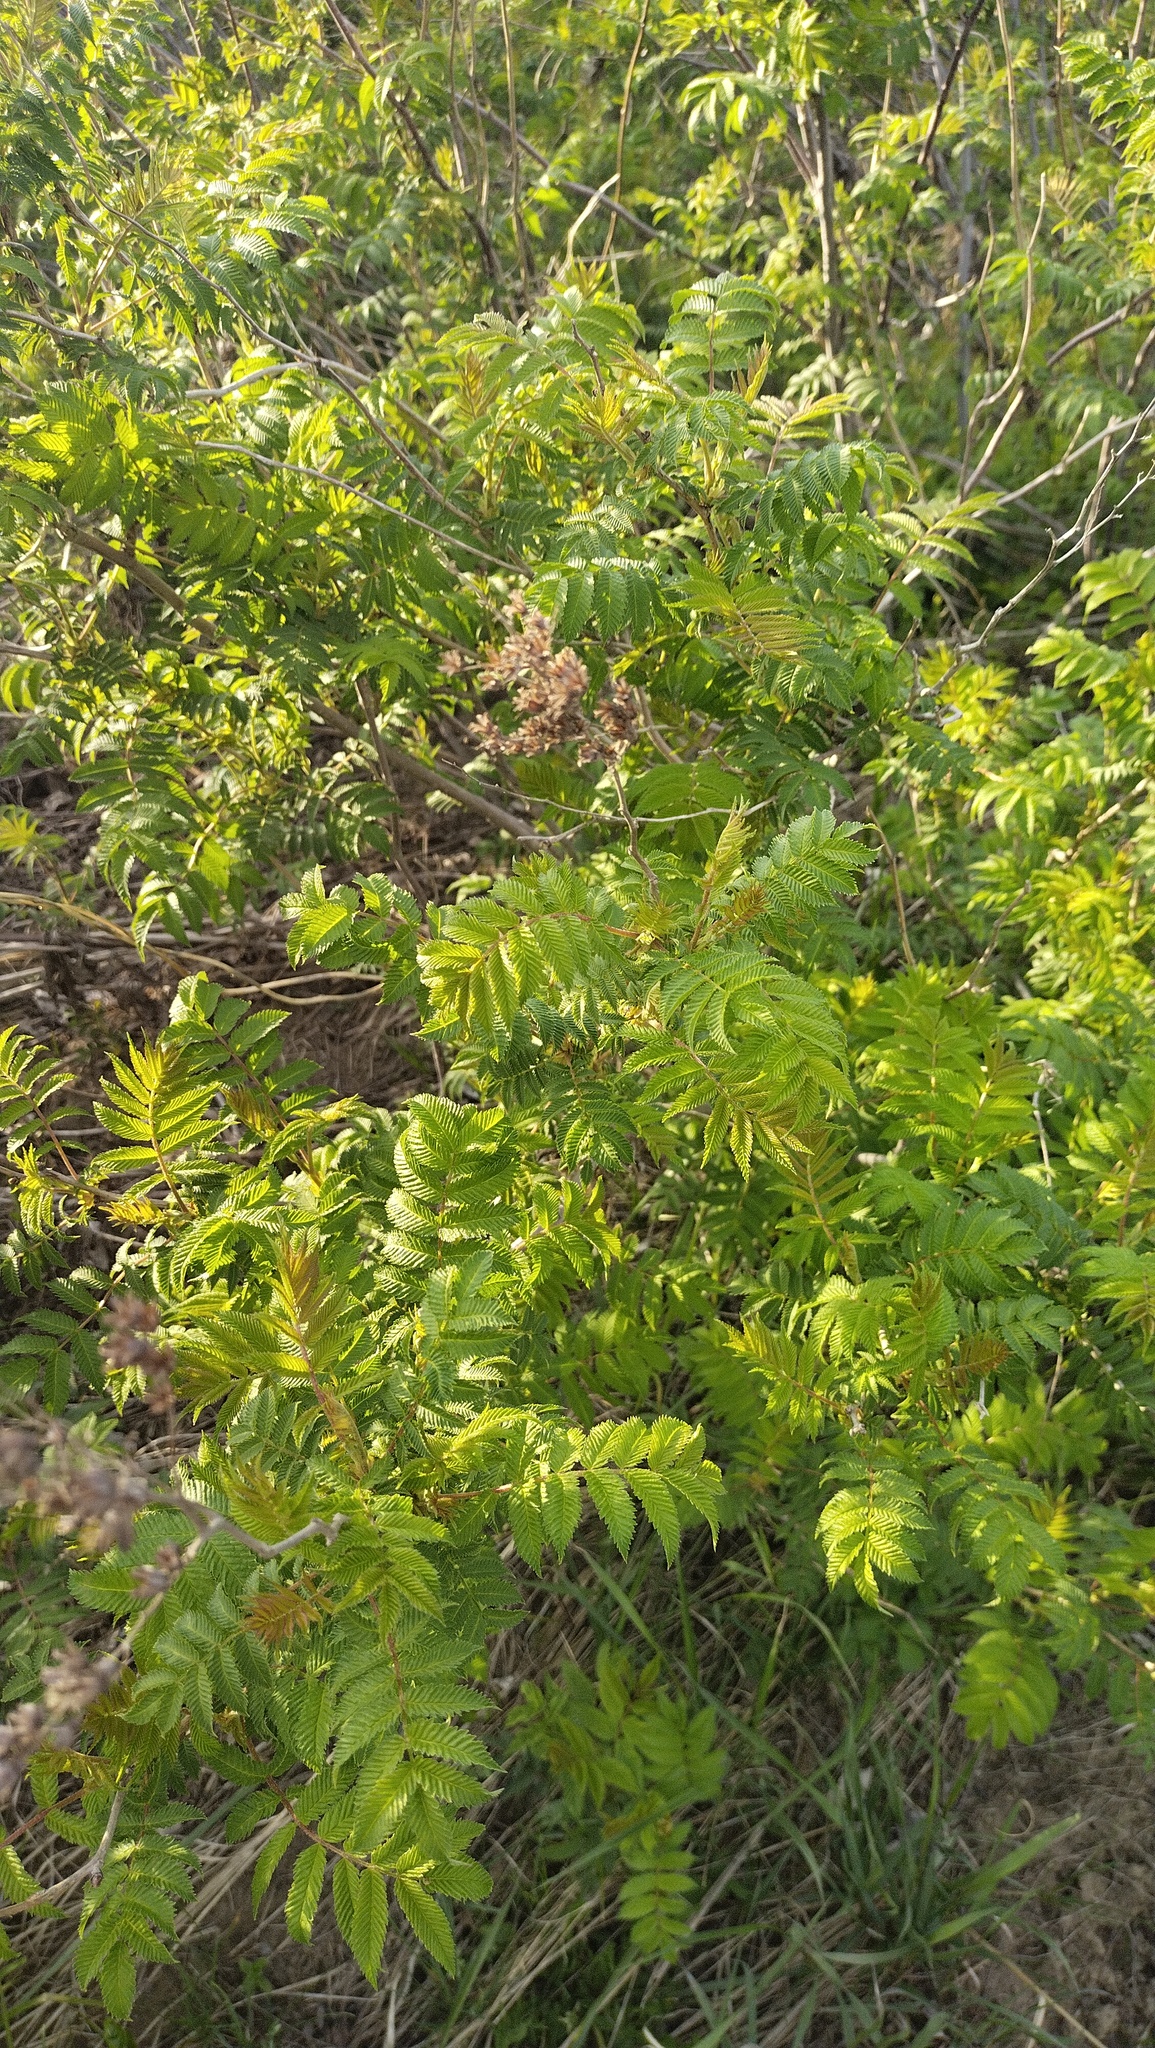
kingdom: Plantae
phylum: Tracheophyta
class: Magnoliopsida
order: Rosales
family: Rosaceae
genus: Sorbaria
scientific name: Sorbaria sorbifolia
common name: False spiraea
